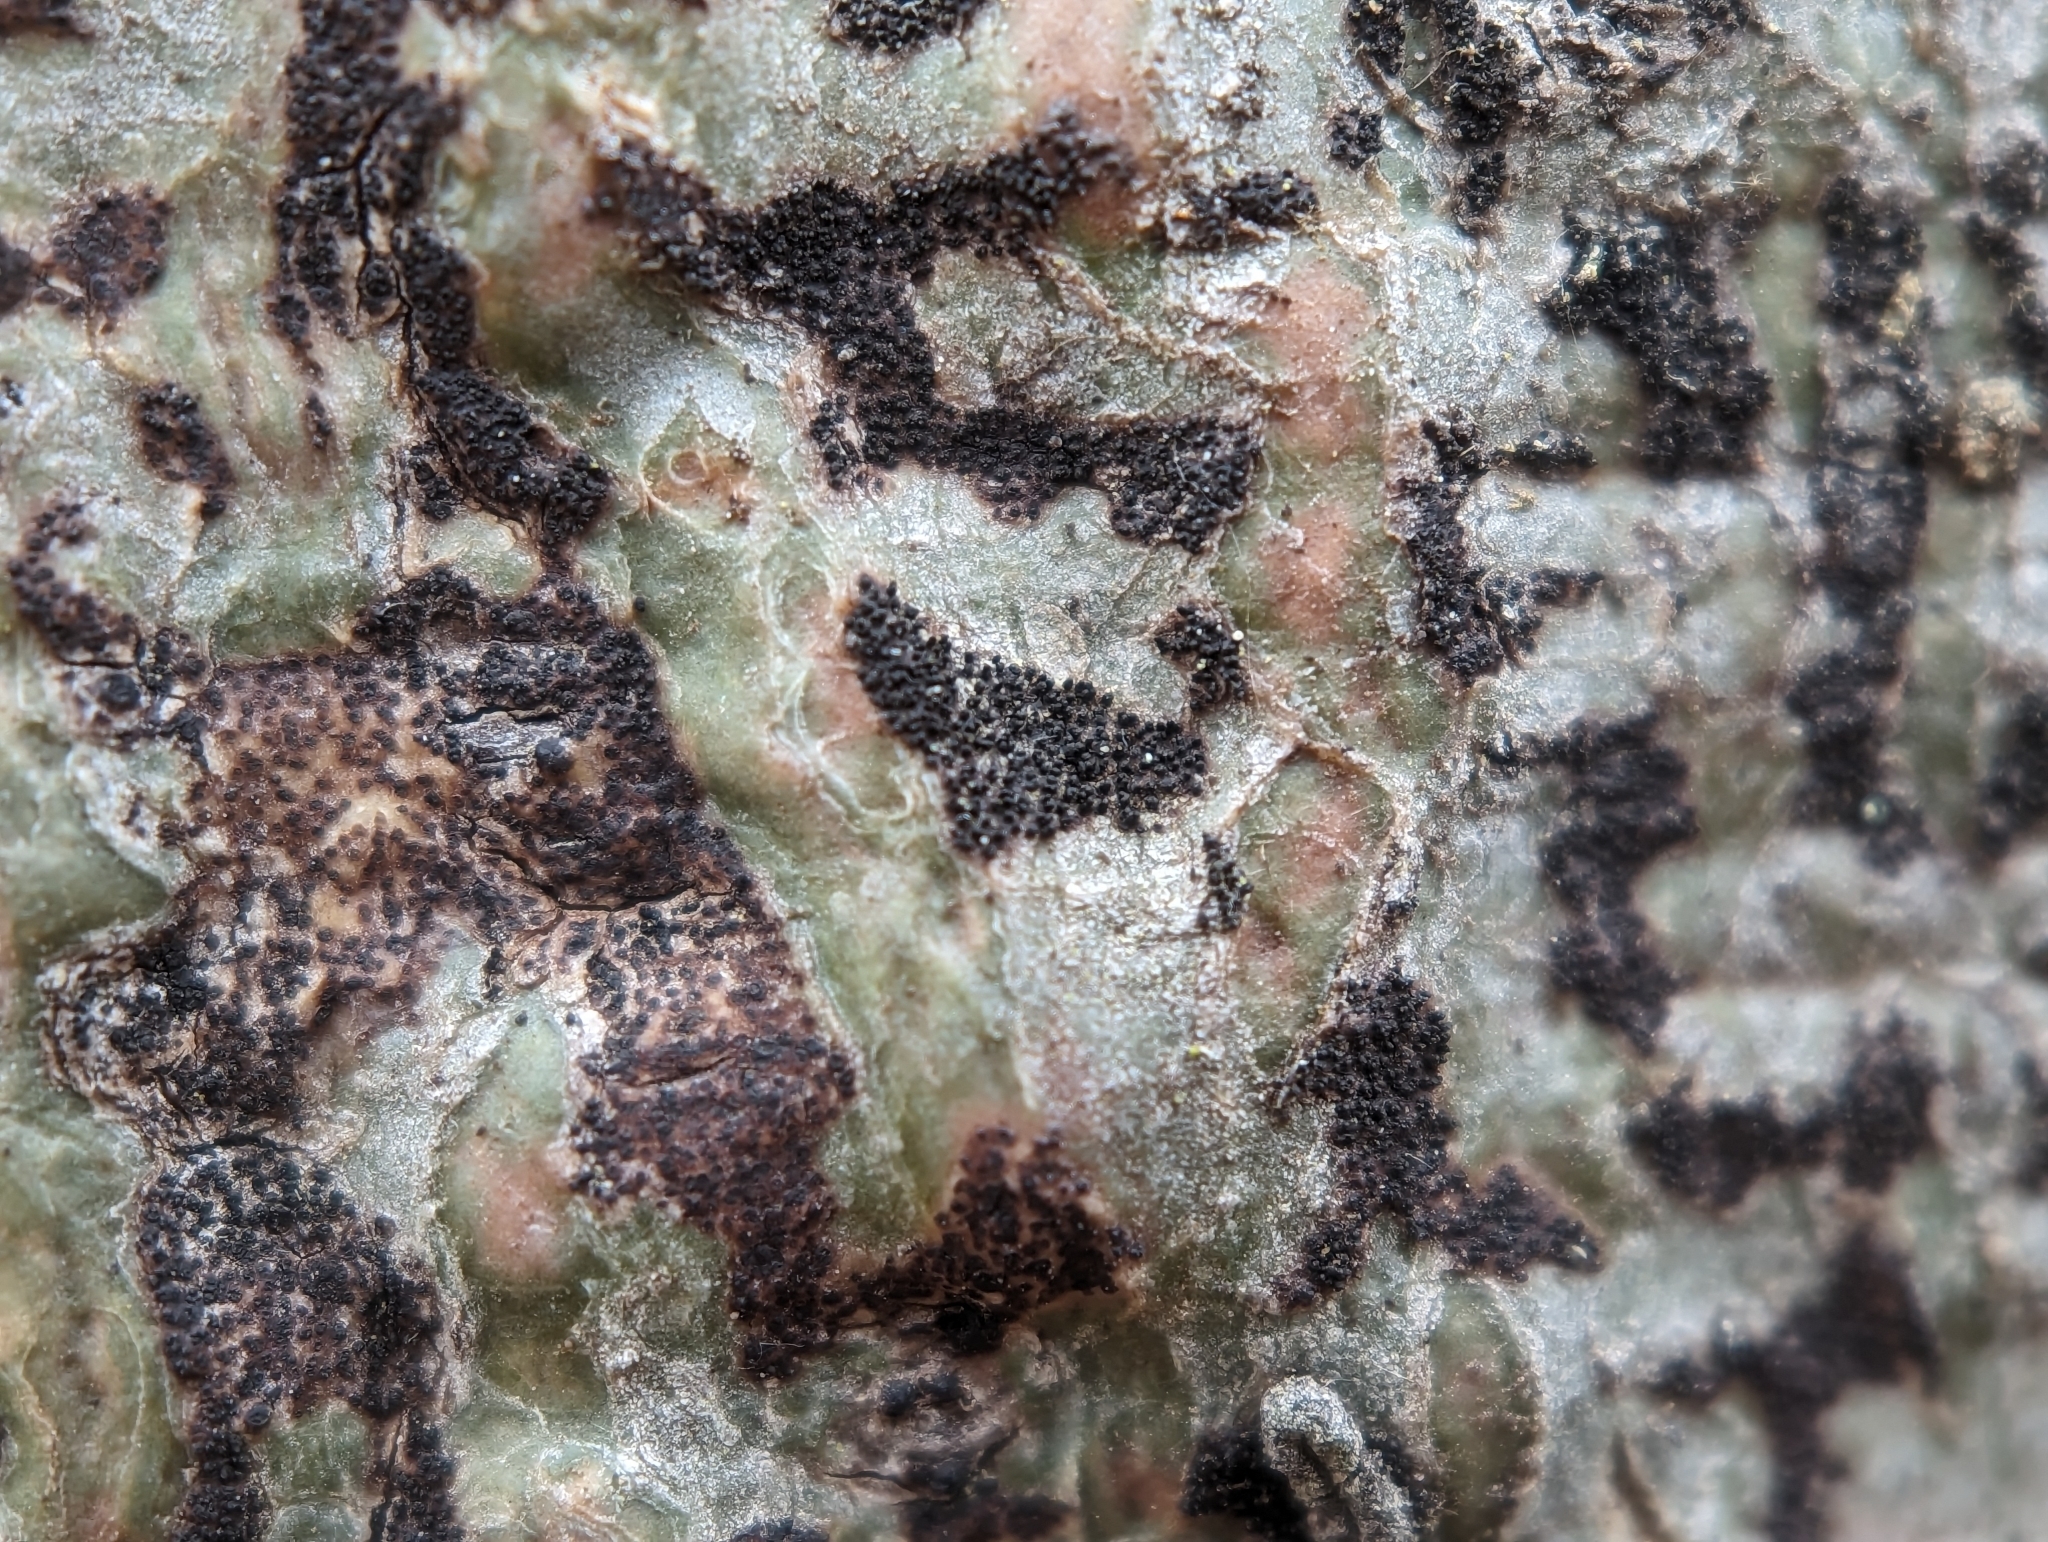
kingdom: Fungi
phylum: Ascomycota
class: Dothideomycetes
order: Trypetheliales
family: Trypetheliaceae
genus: Viridothelium
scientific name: Viridothelium virens
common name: Speckled blister lichen
